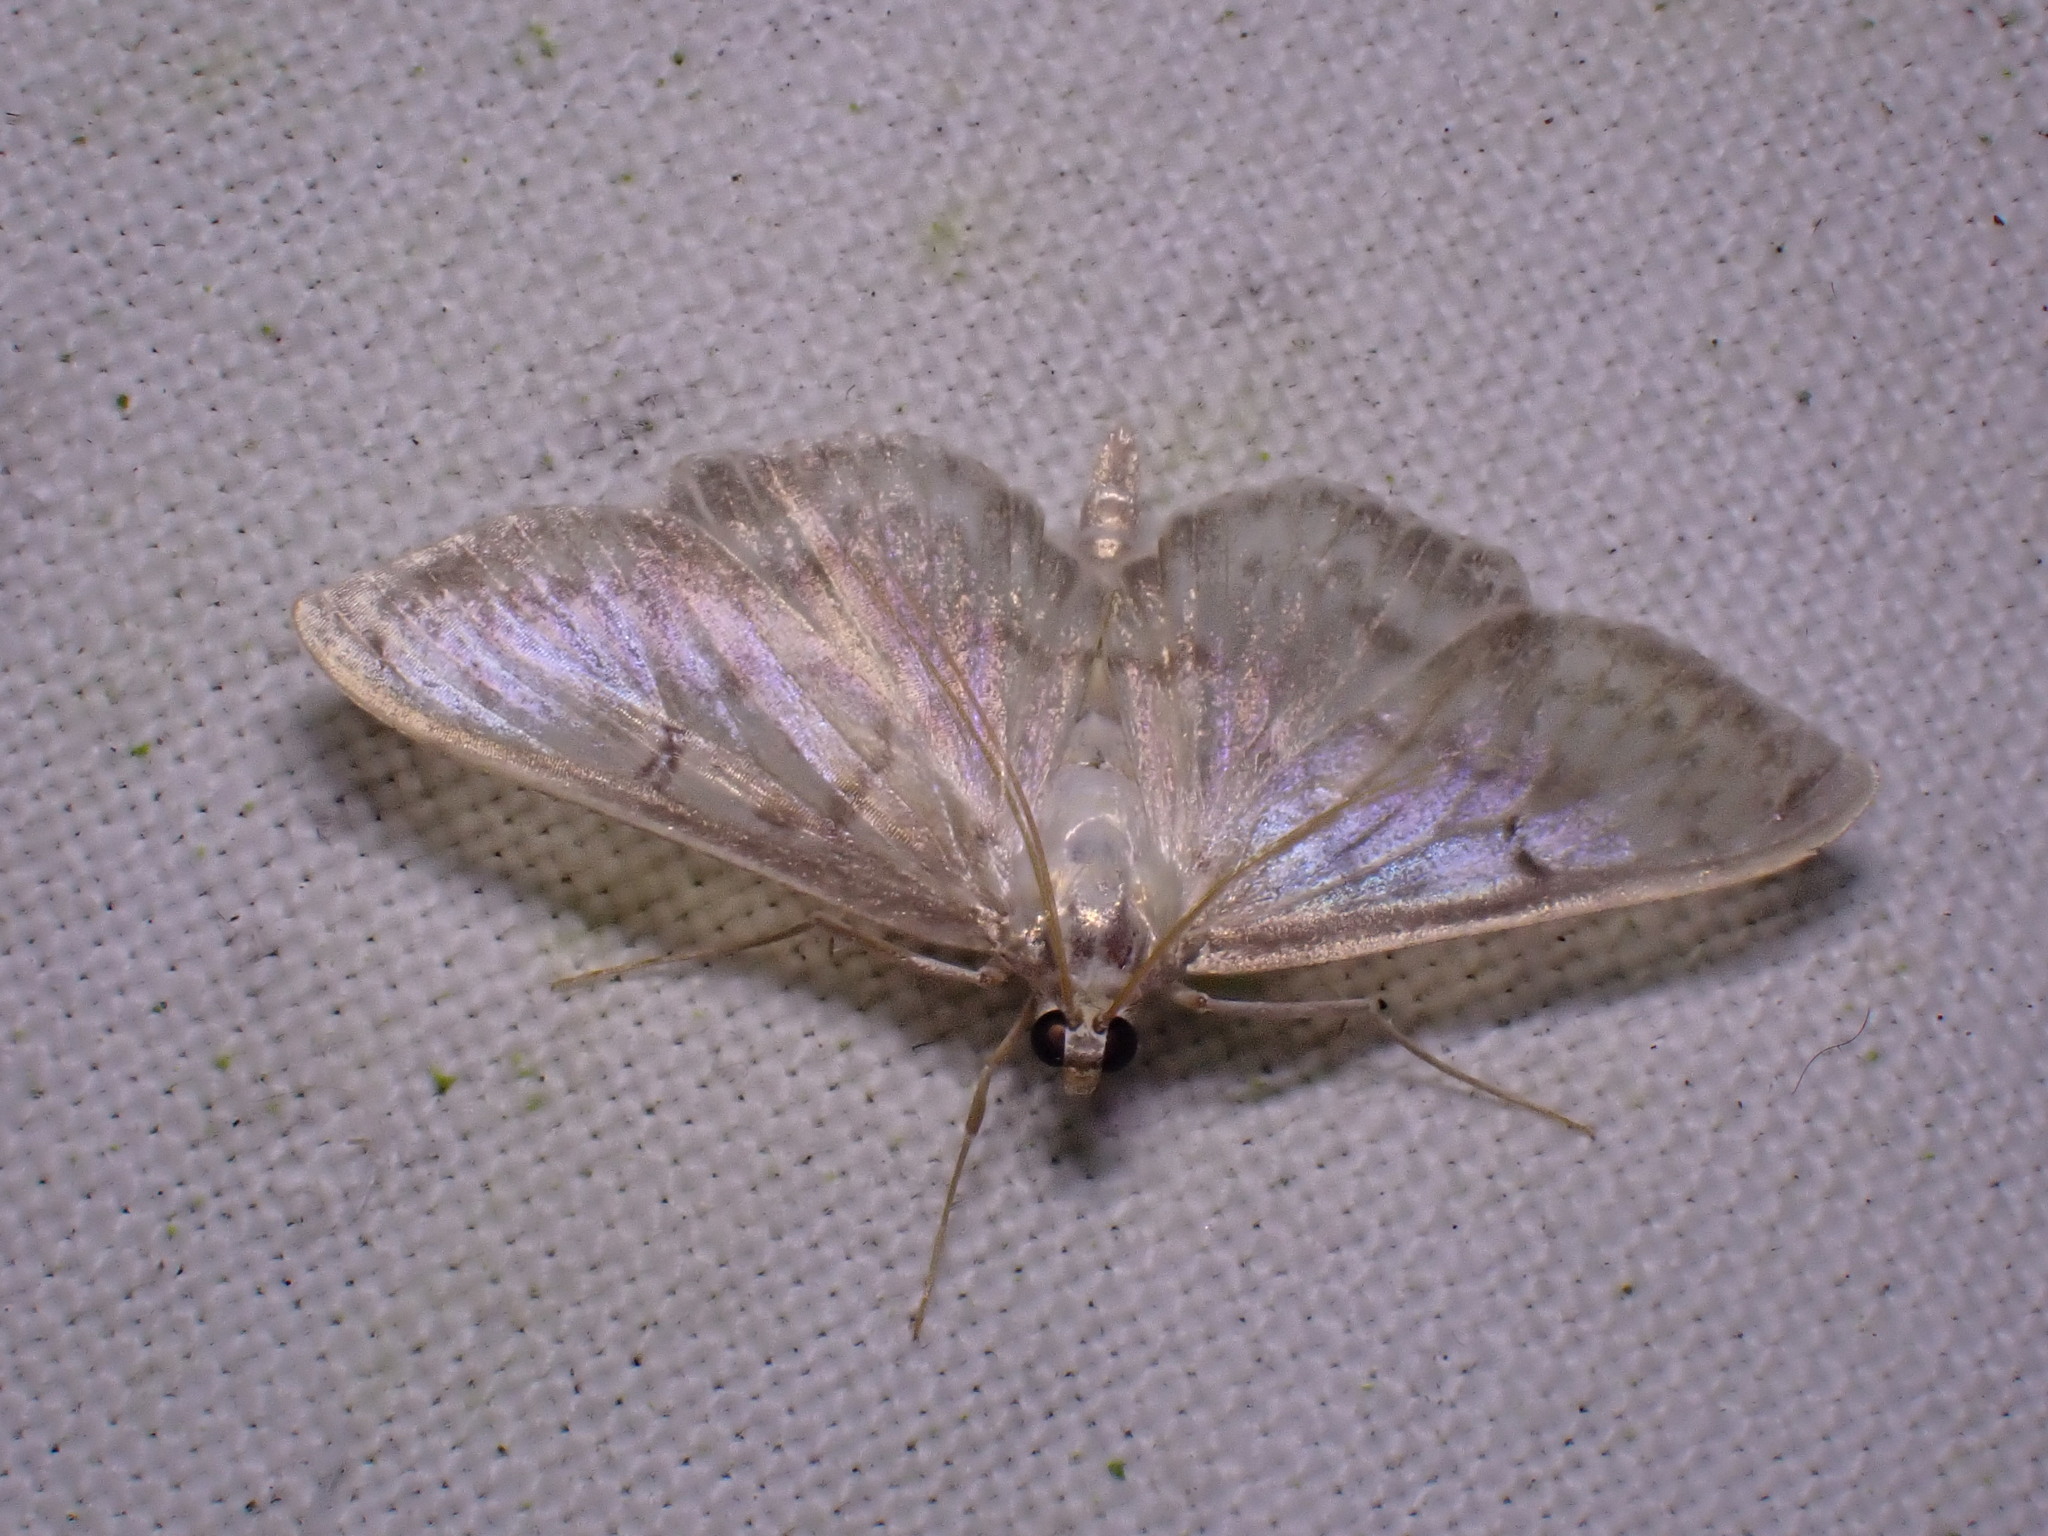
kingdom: Animalia
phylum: Arthropoda
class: Insecta
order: Lepidoptera
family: Crambidae
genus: Patania
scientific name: Patania ruralis
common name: Mother of pearl
